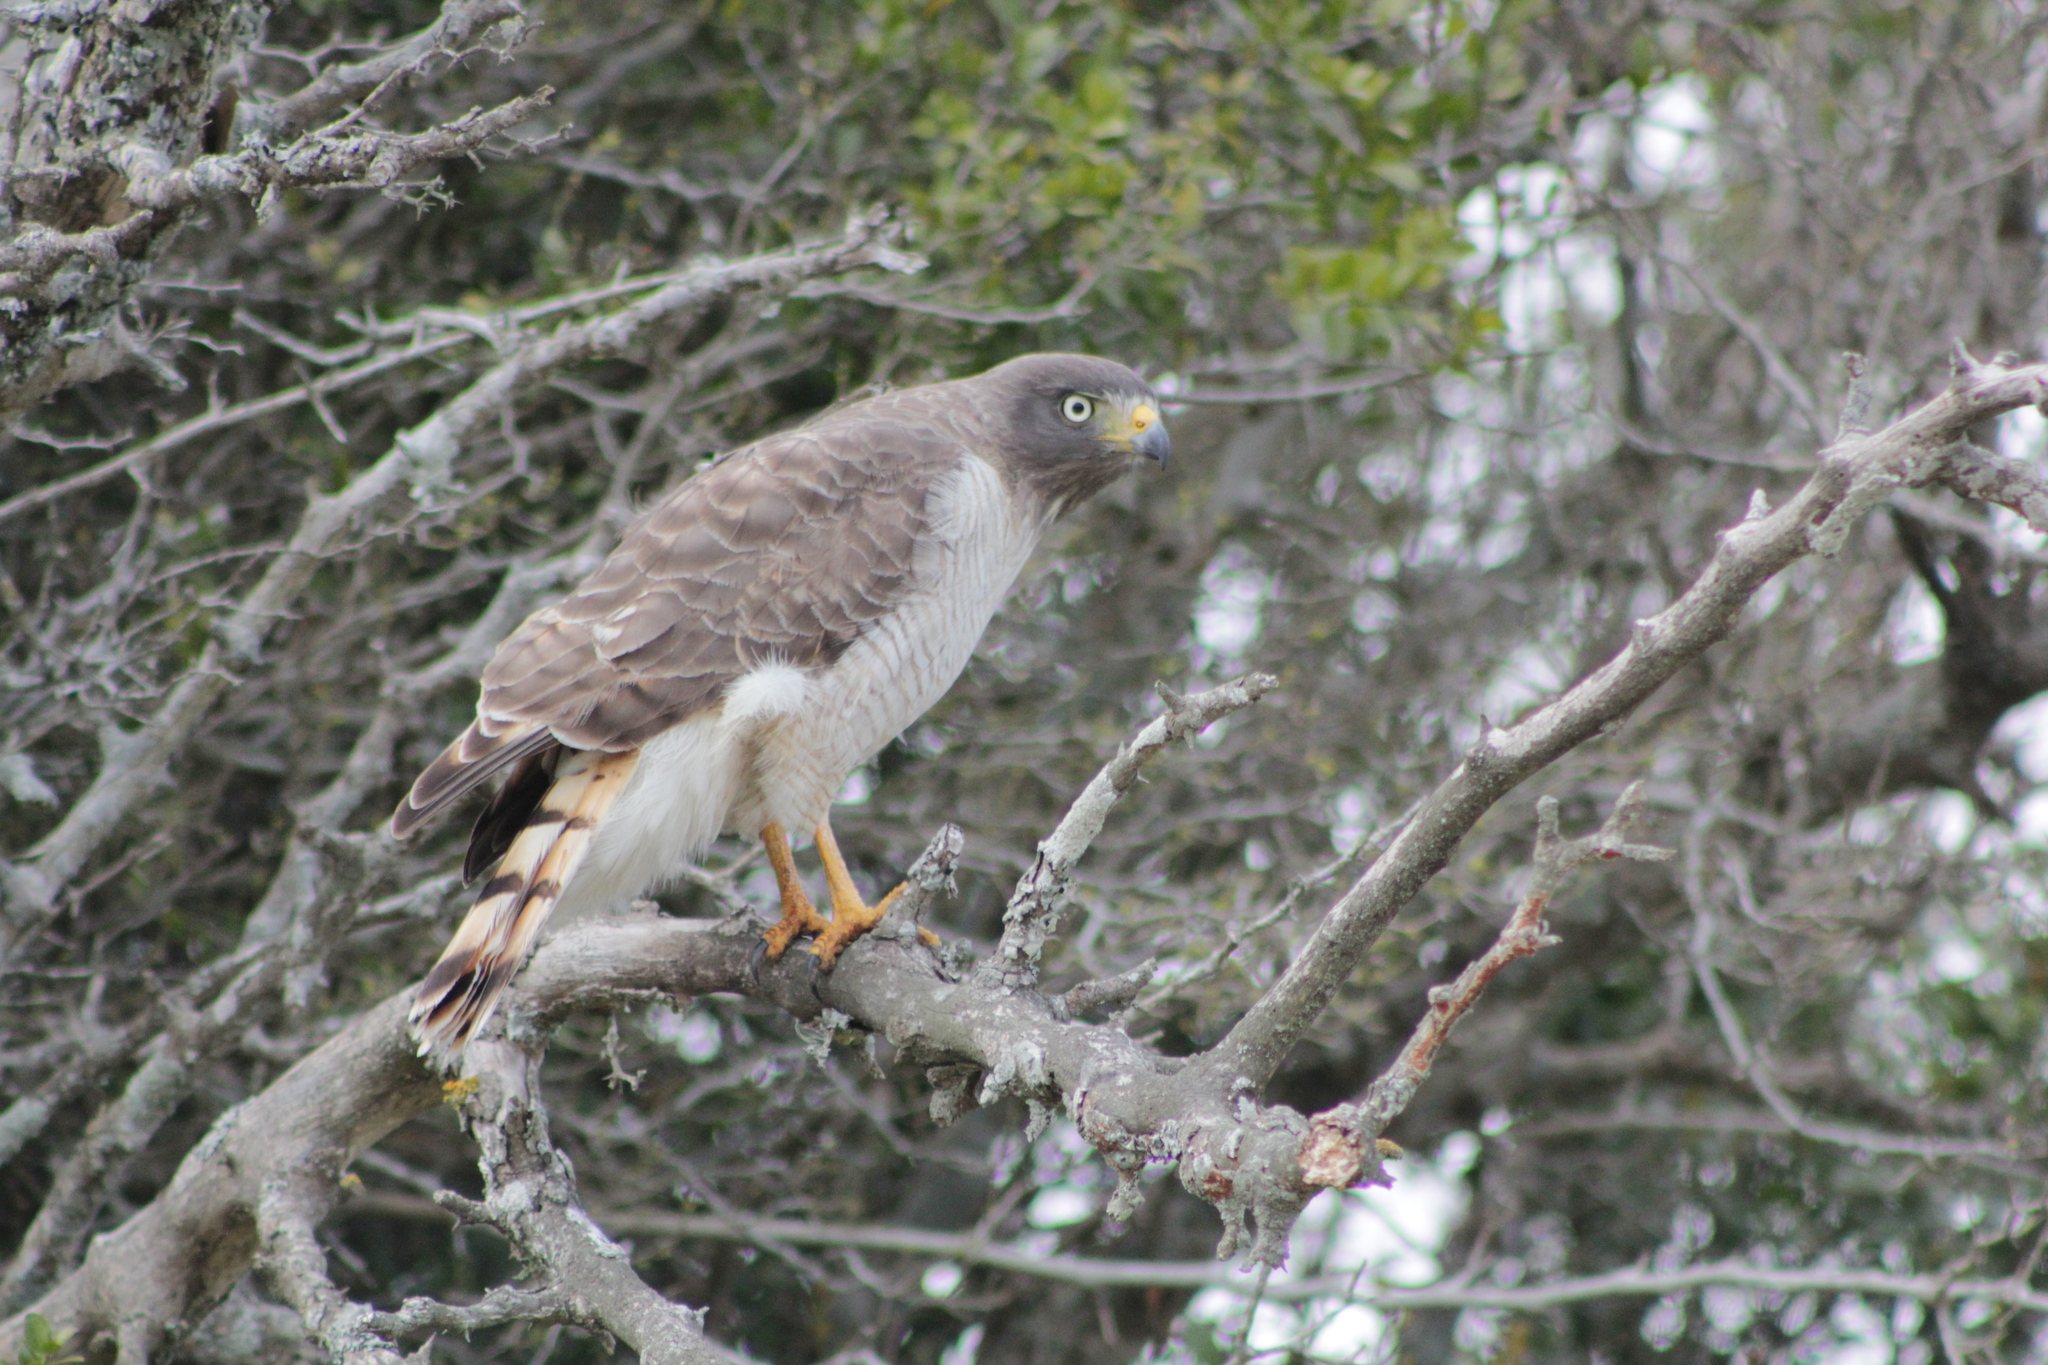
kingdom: Animalia
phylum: Chordata
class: Aves
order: Accipitriformes
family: Accipitridae
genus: Rupornis
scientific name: Rupornis magnirostris
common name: Roadside hawk
